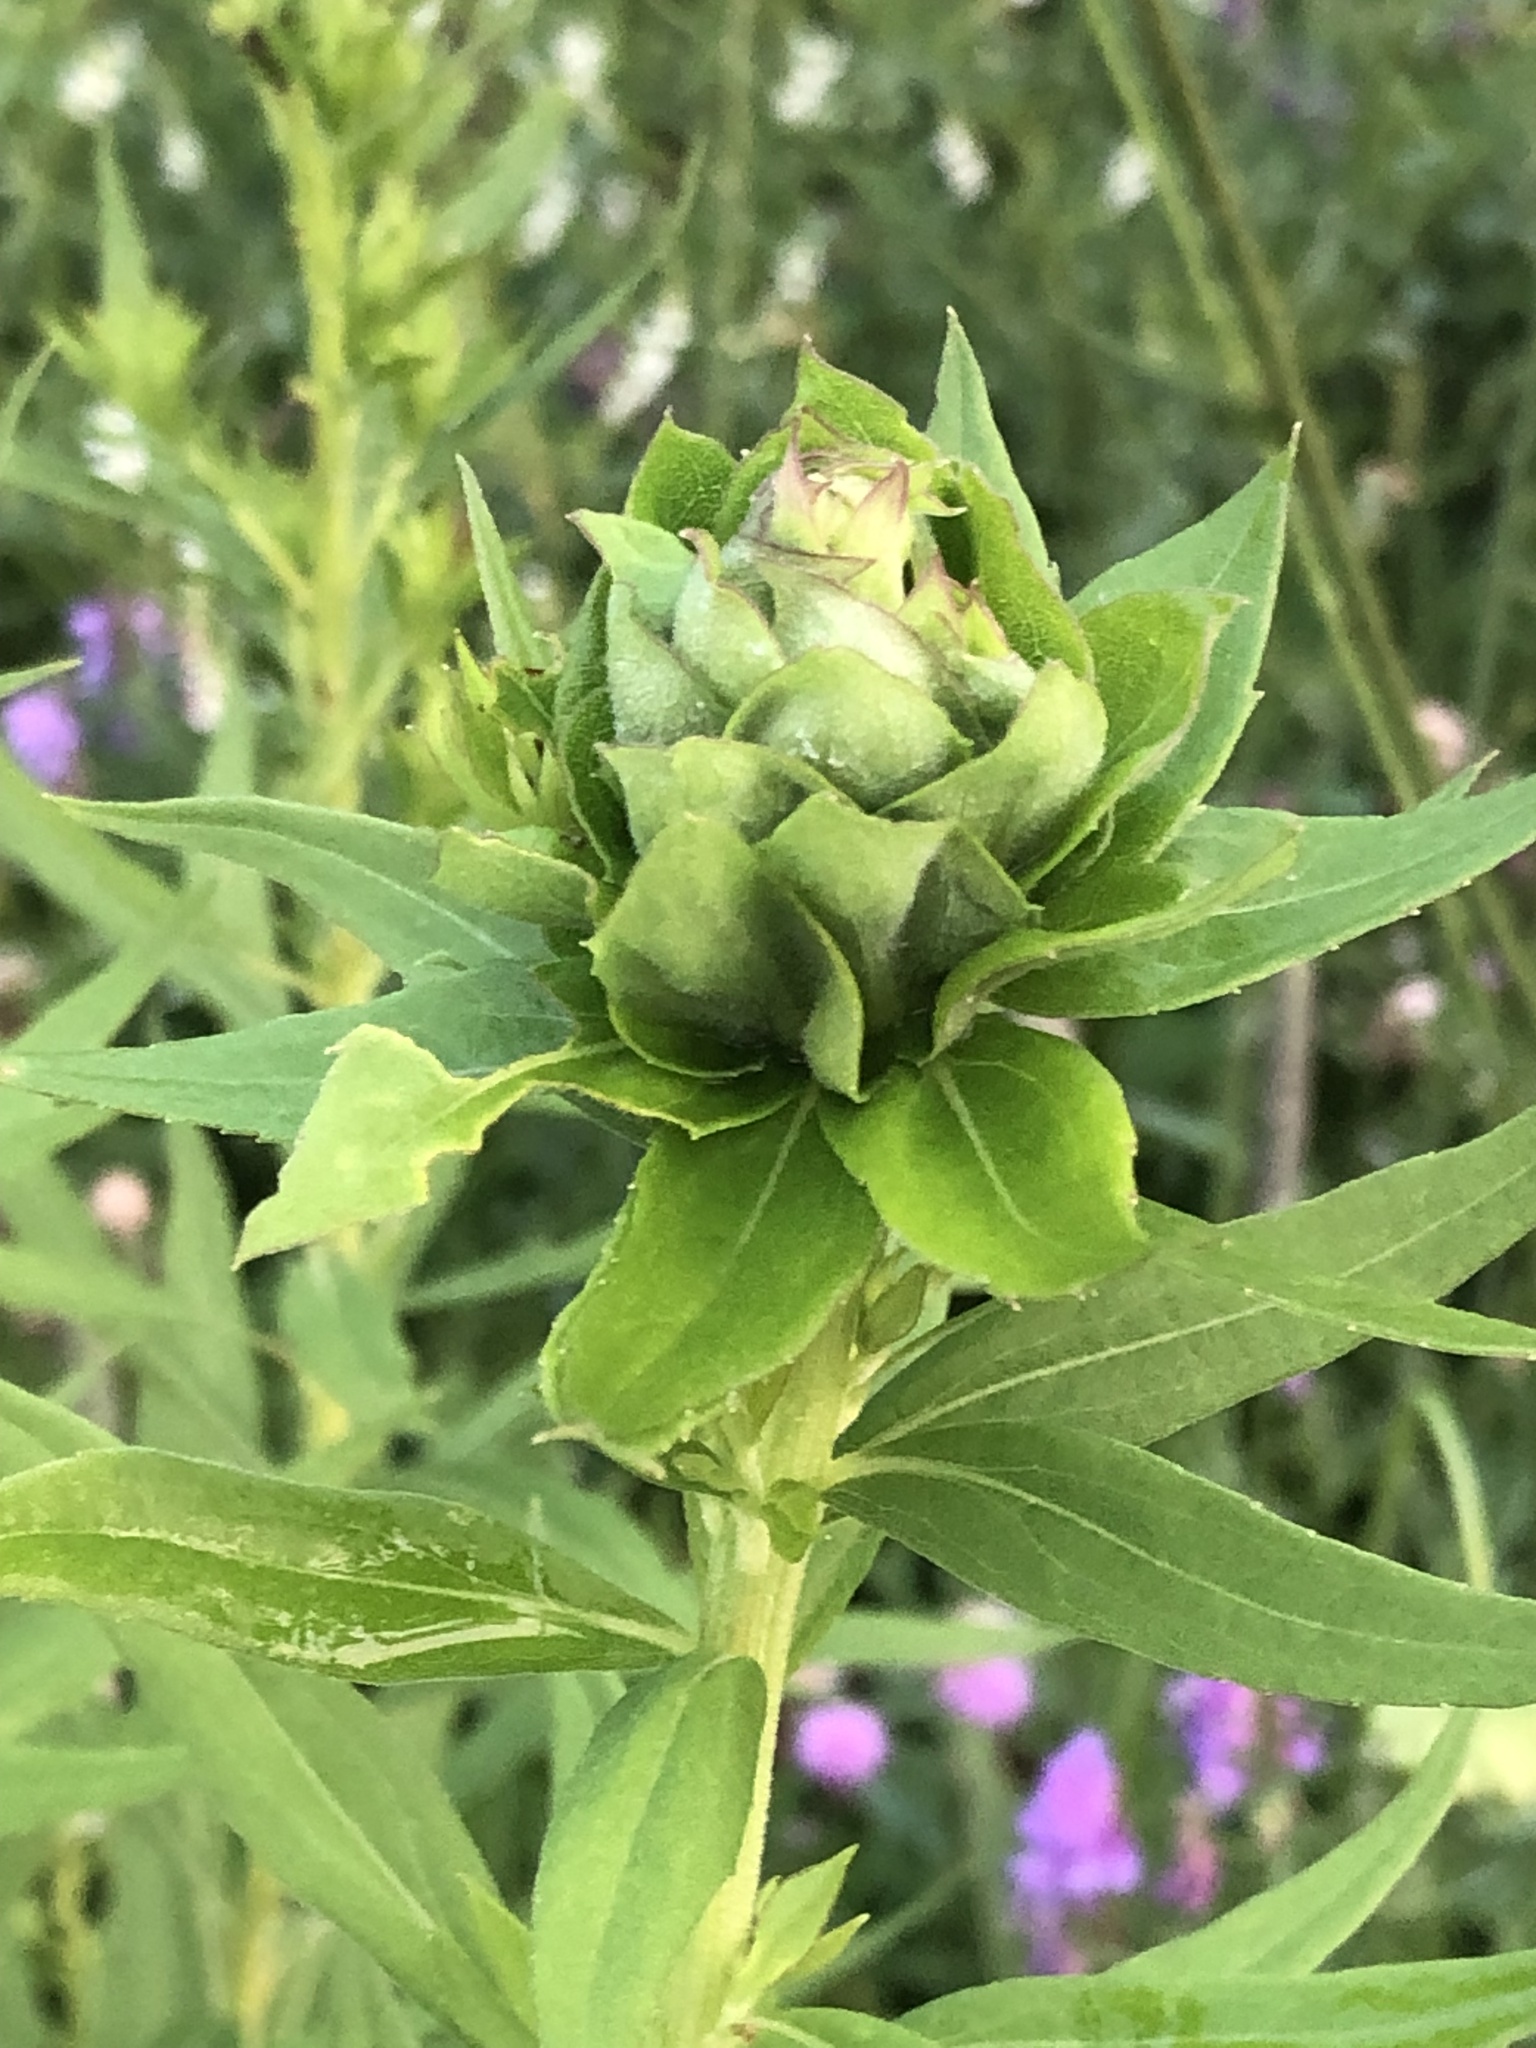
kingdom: Animalia
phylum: Arthropoda
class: Insecta
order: Diptera
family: Cecidomyiidae
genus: Rhopalomyia
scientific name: Rhopalomyia solidaginis
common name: Goldenrod bunch gall midge
